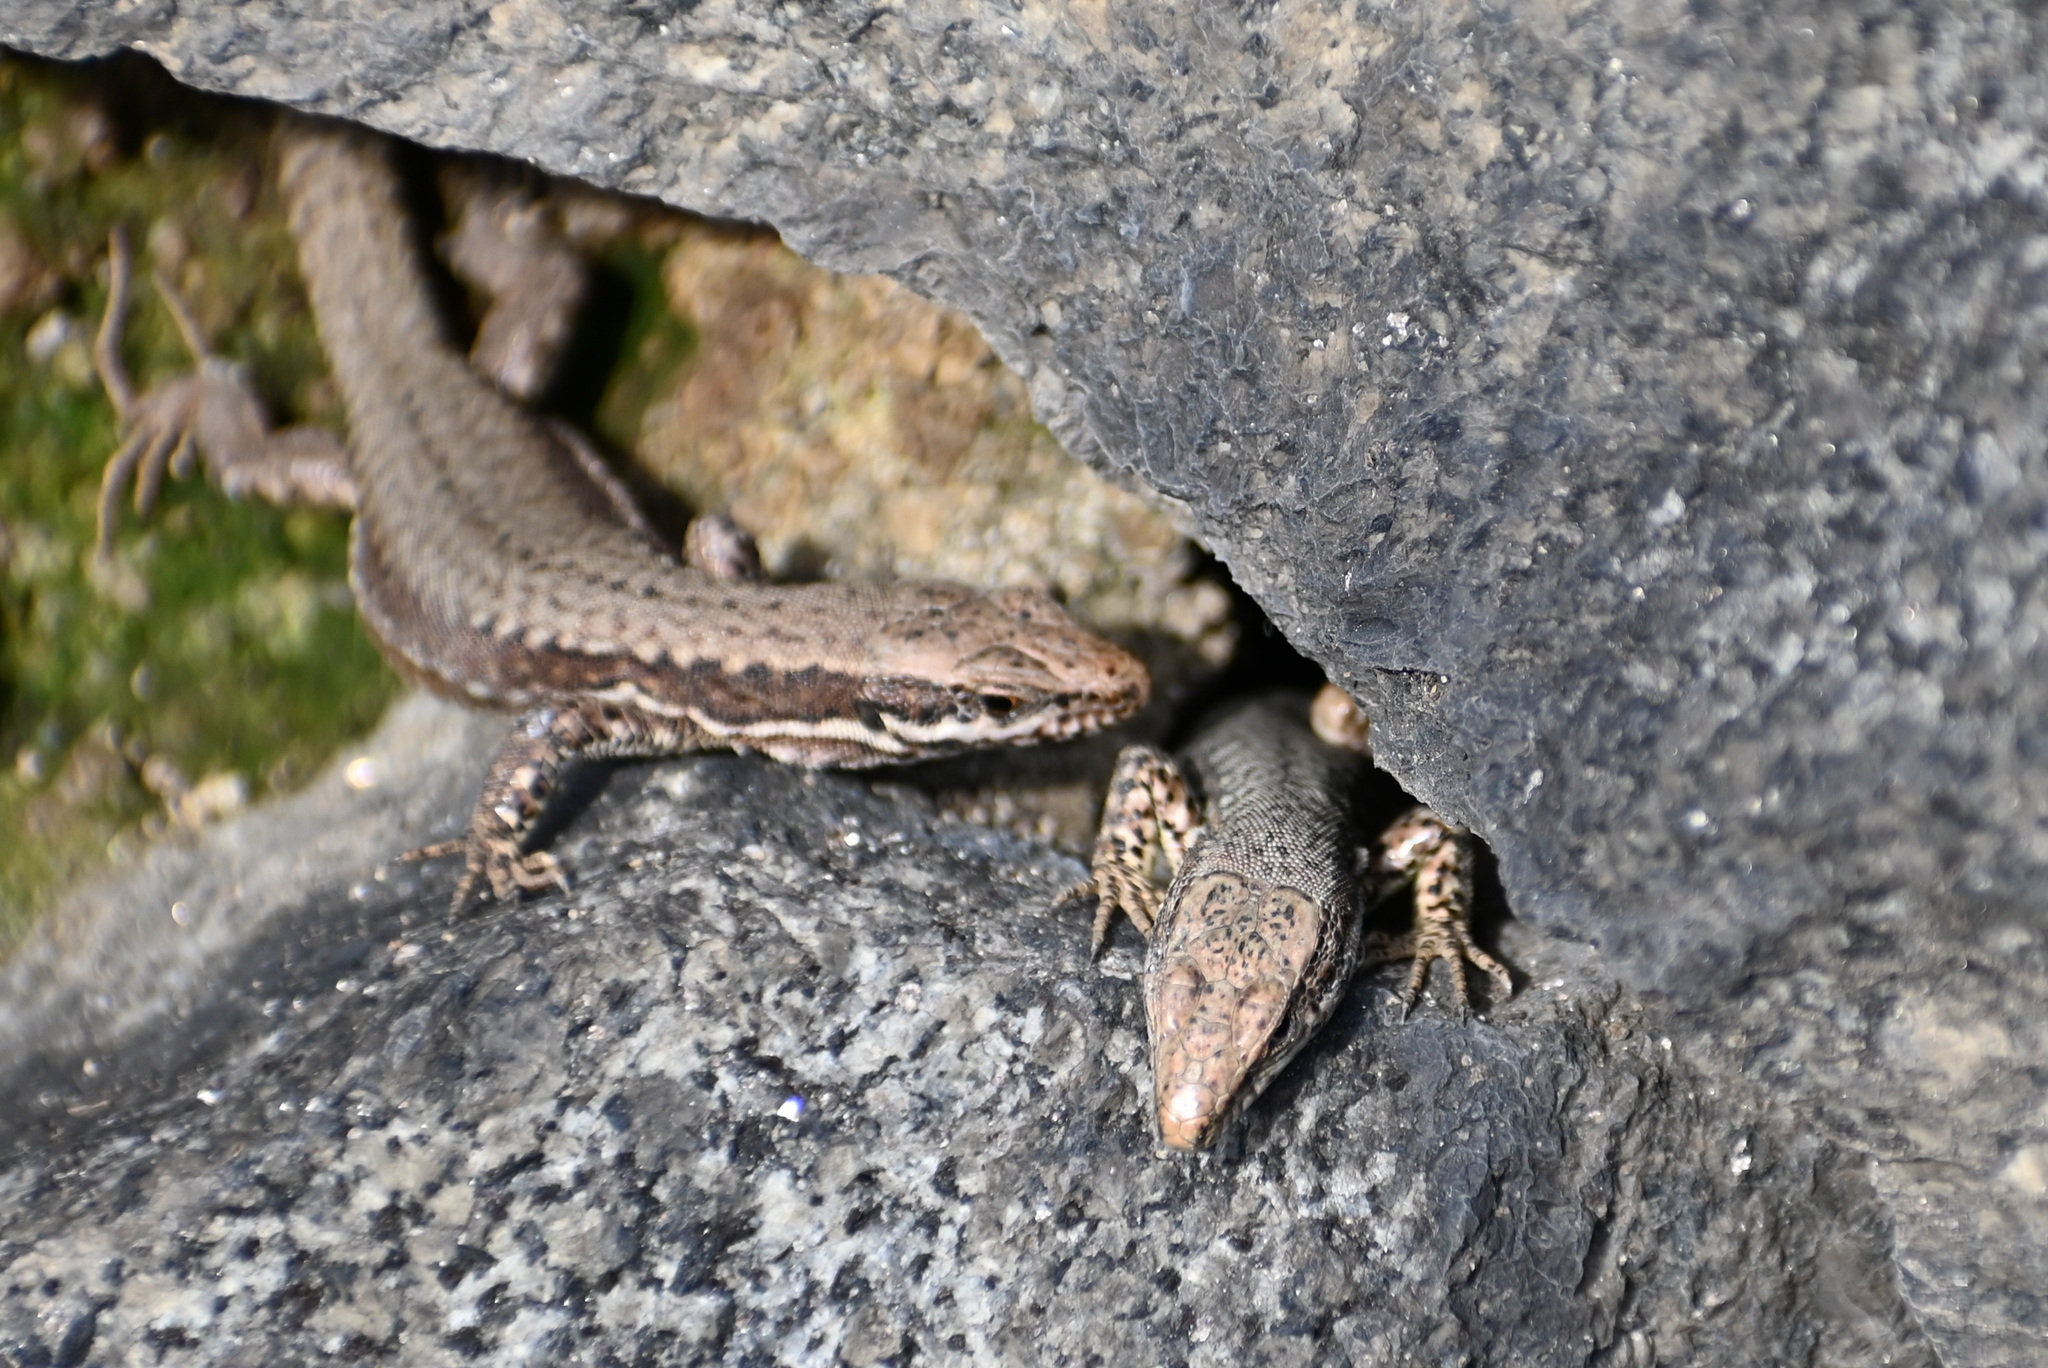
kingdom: Animalia
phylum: Chordata
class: Squamata
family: Lacertidae
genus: Podarcis
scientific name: Podarcis muralis
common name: Common wall lizard
